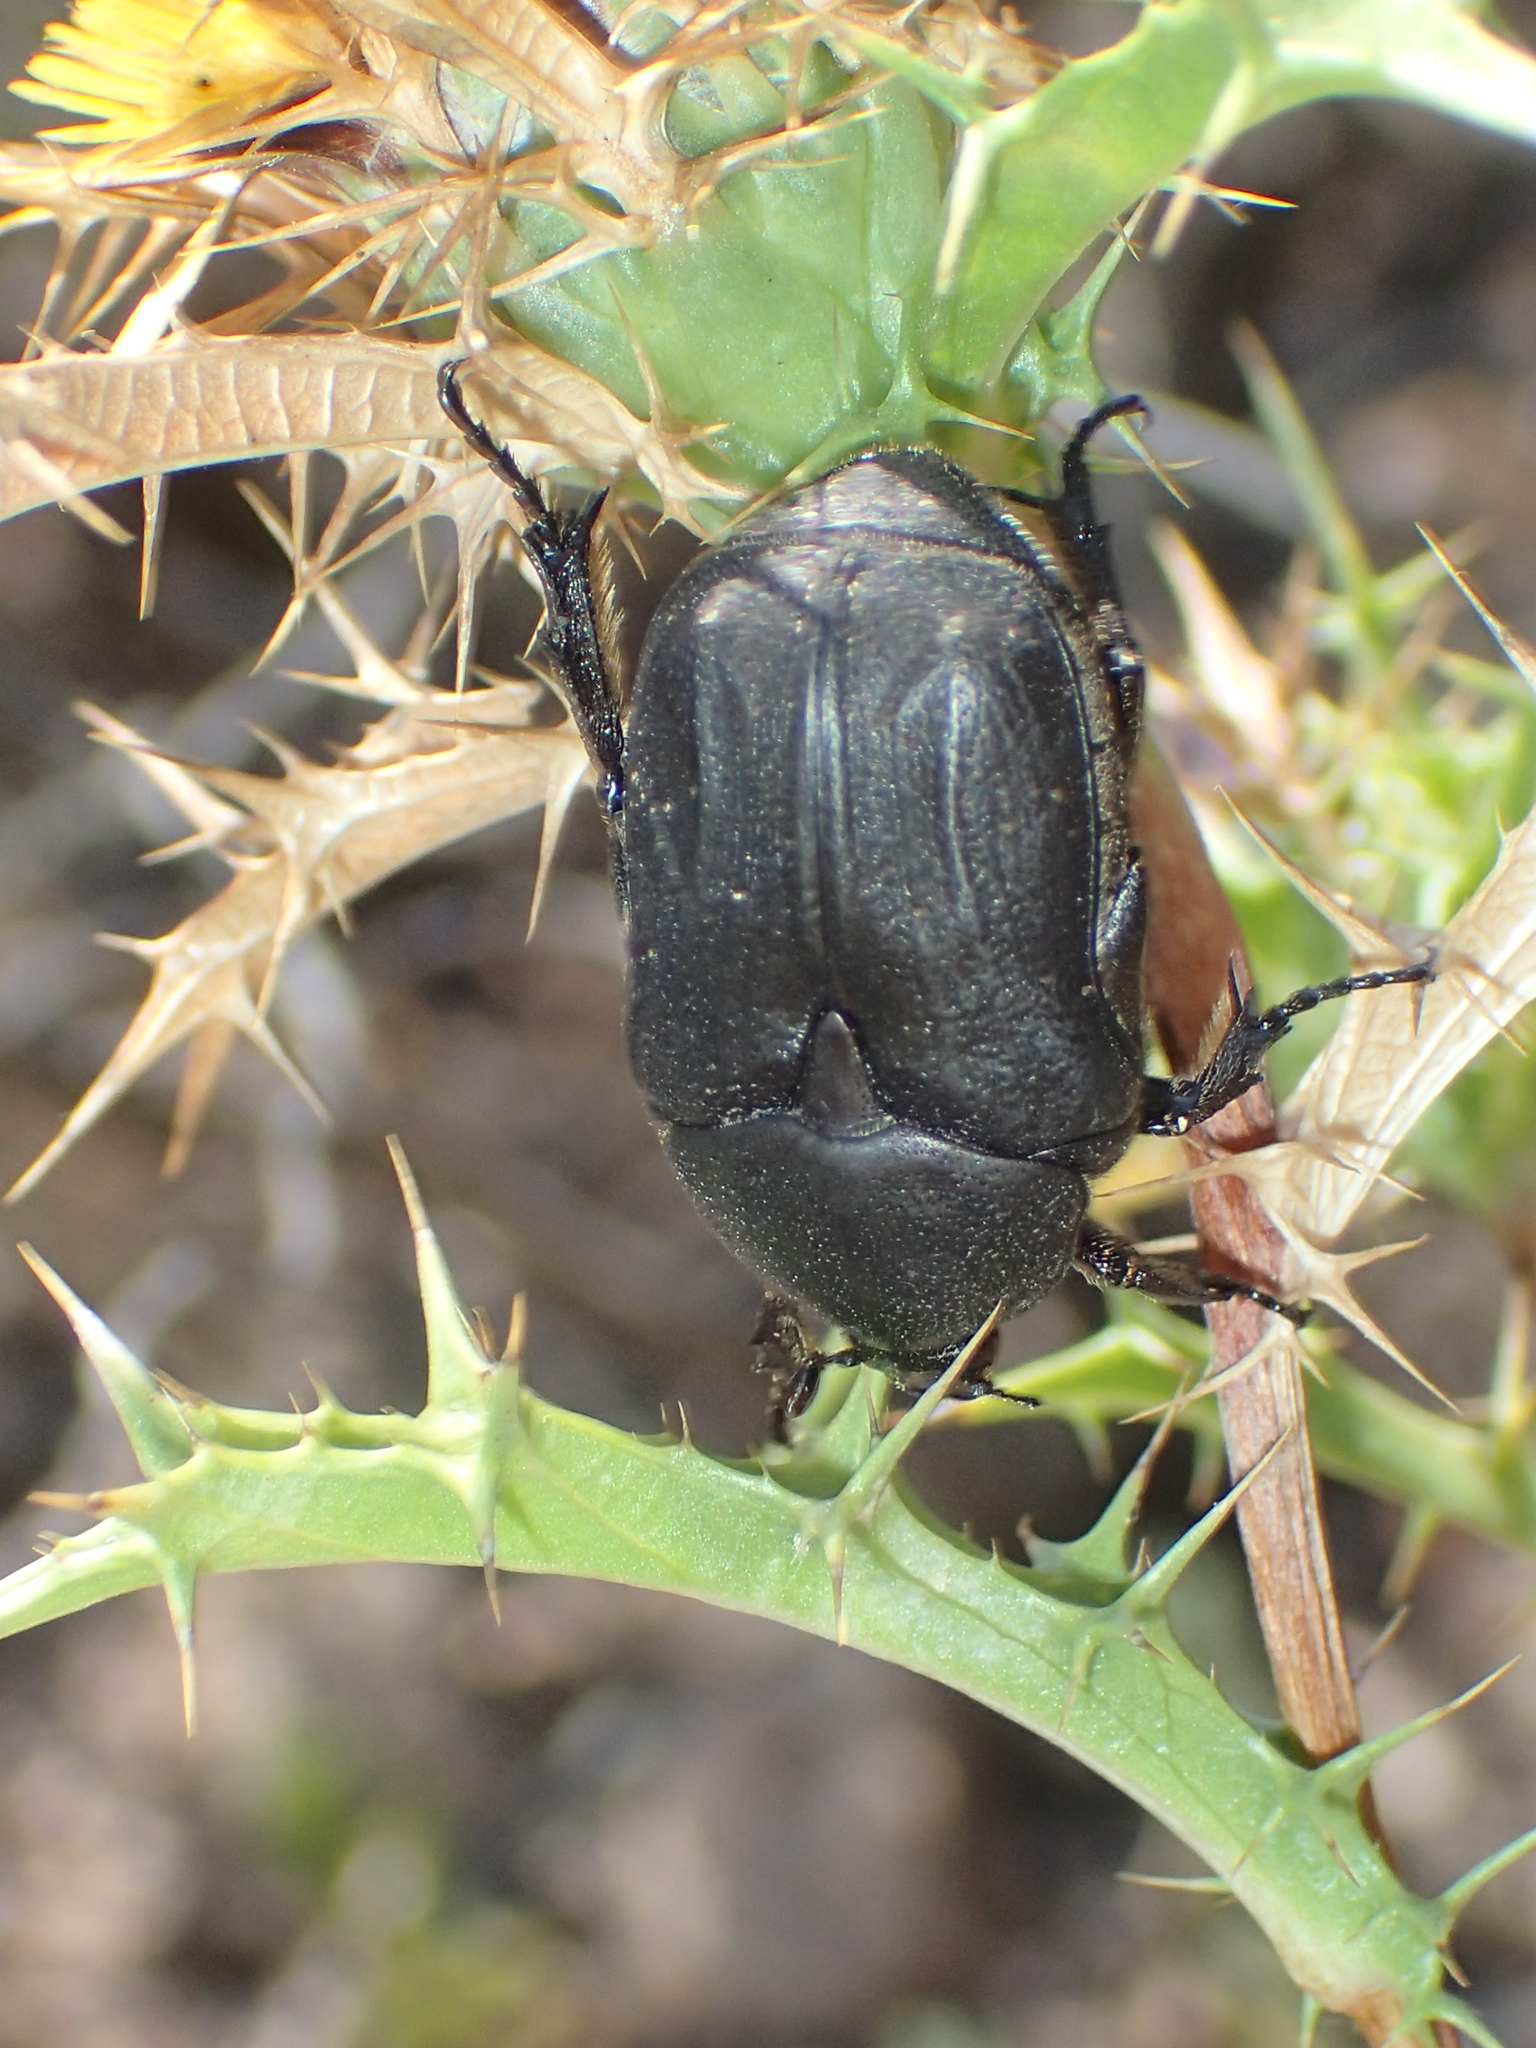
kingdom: Animalia
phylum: Arthropoda
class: Insecta
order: Coleoptera
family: Scarabaeidae
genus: Protaetia
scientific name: Protaetia morio
